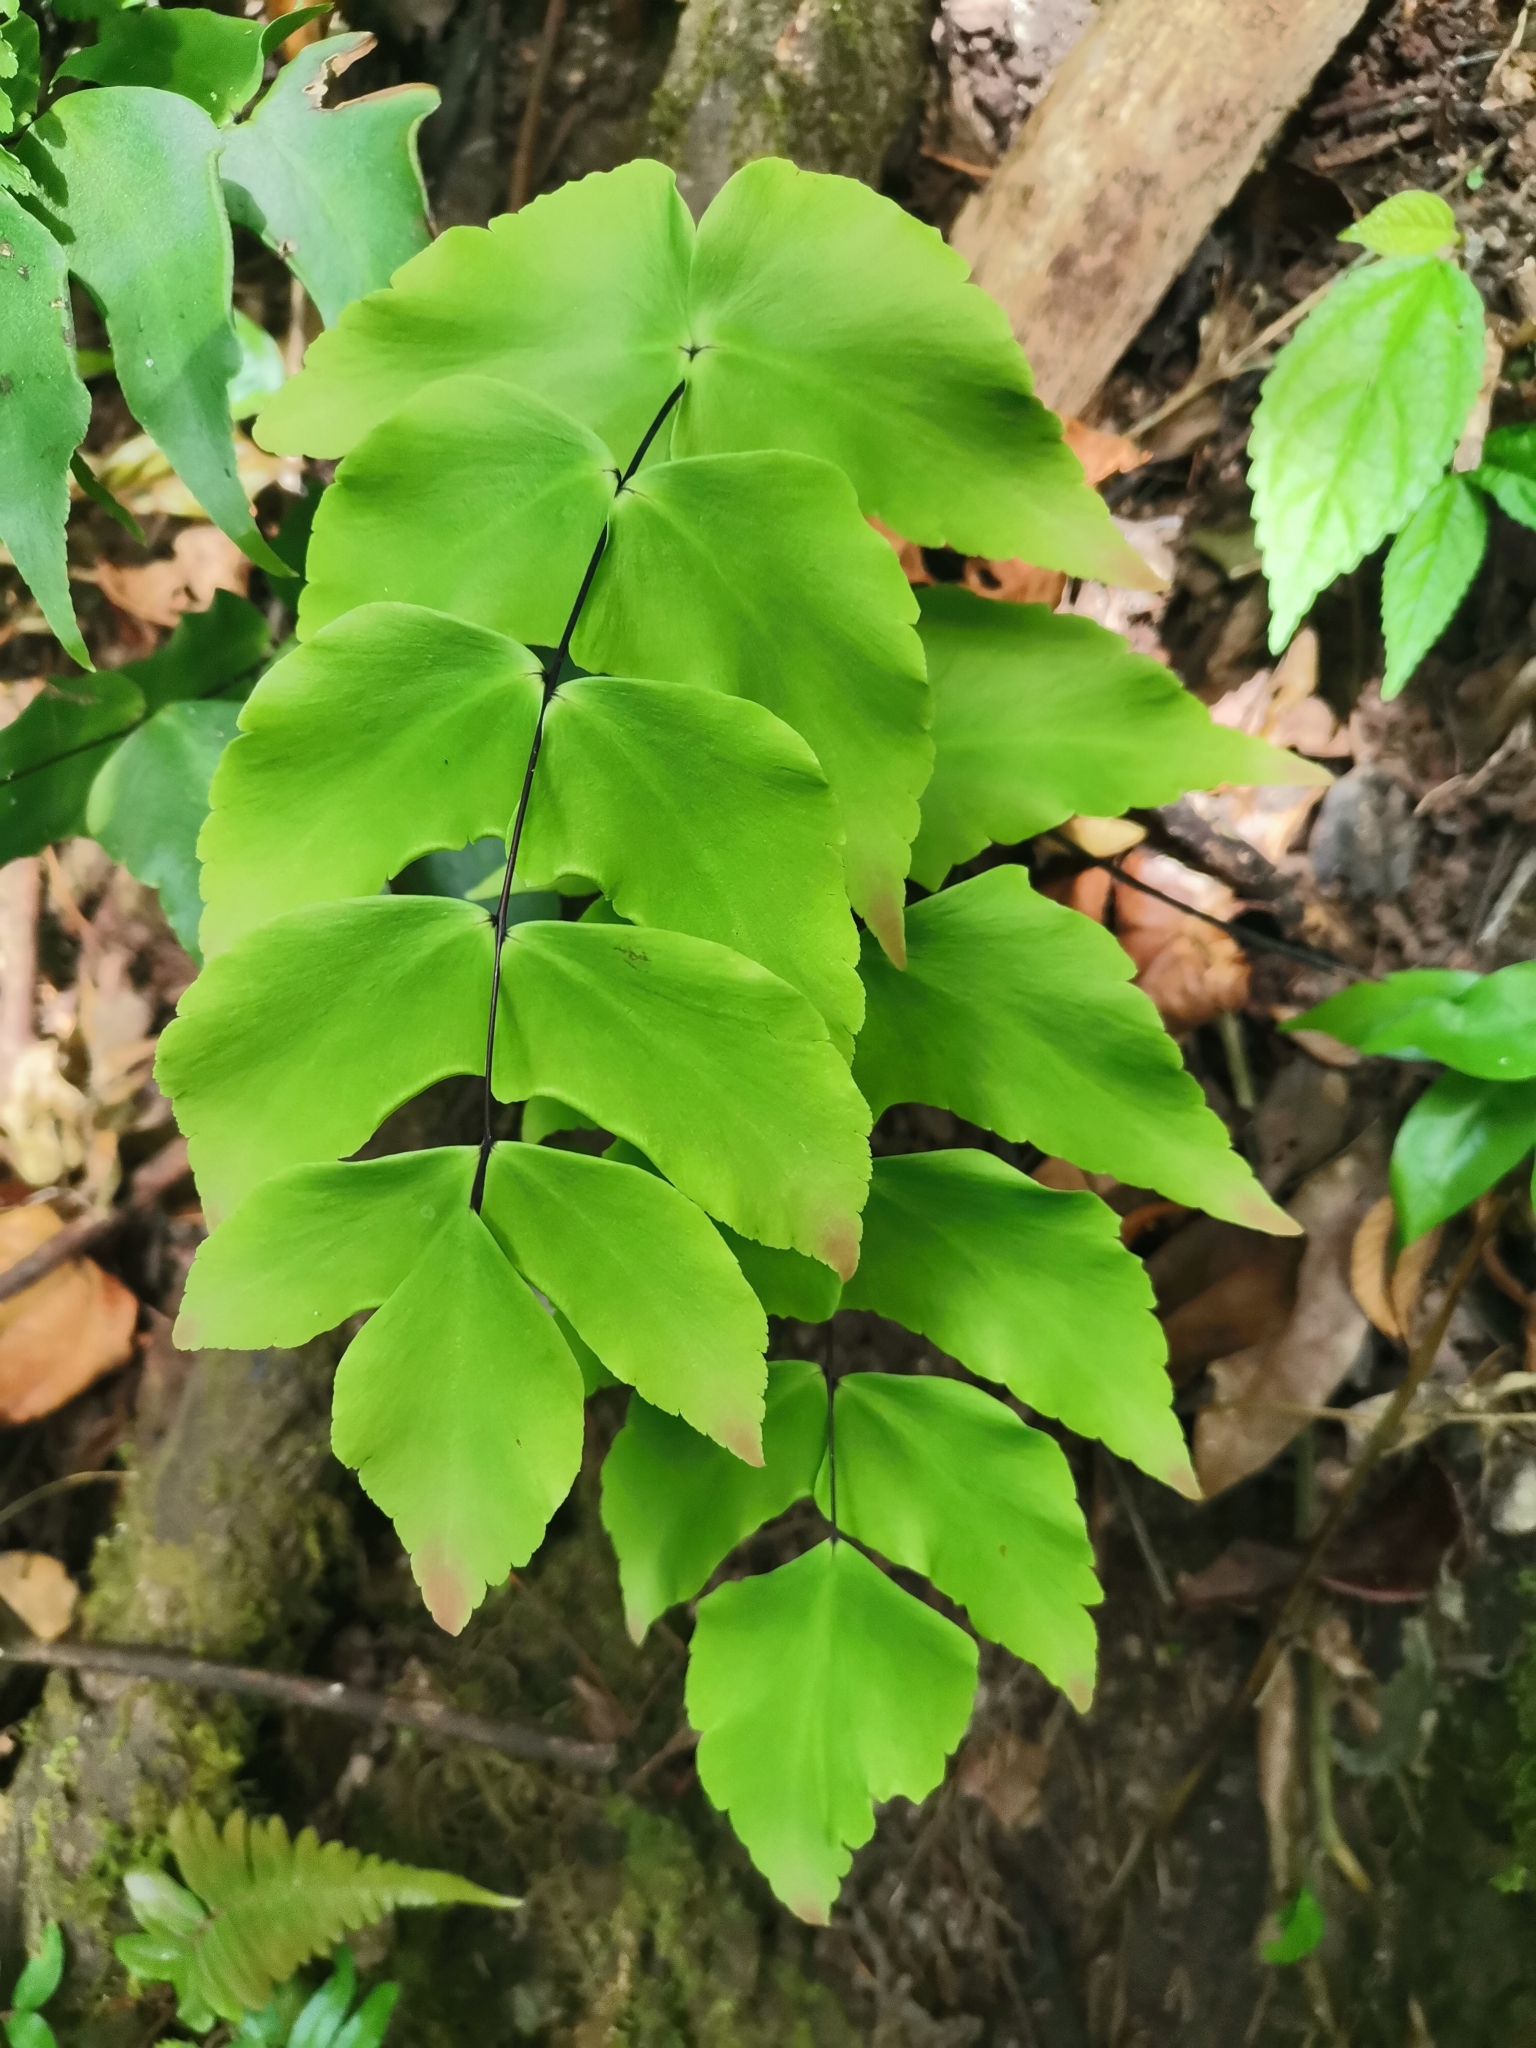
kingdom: Plantae
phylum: Tracheophyta
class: Polypodiopsida
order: Polypodiales
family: Pteridaceae
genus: Adiantum
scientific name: Adiantum macrophyllum
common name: Largeleaf maidenhair
